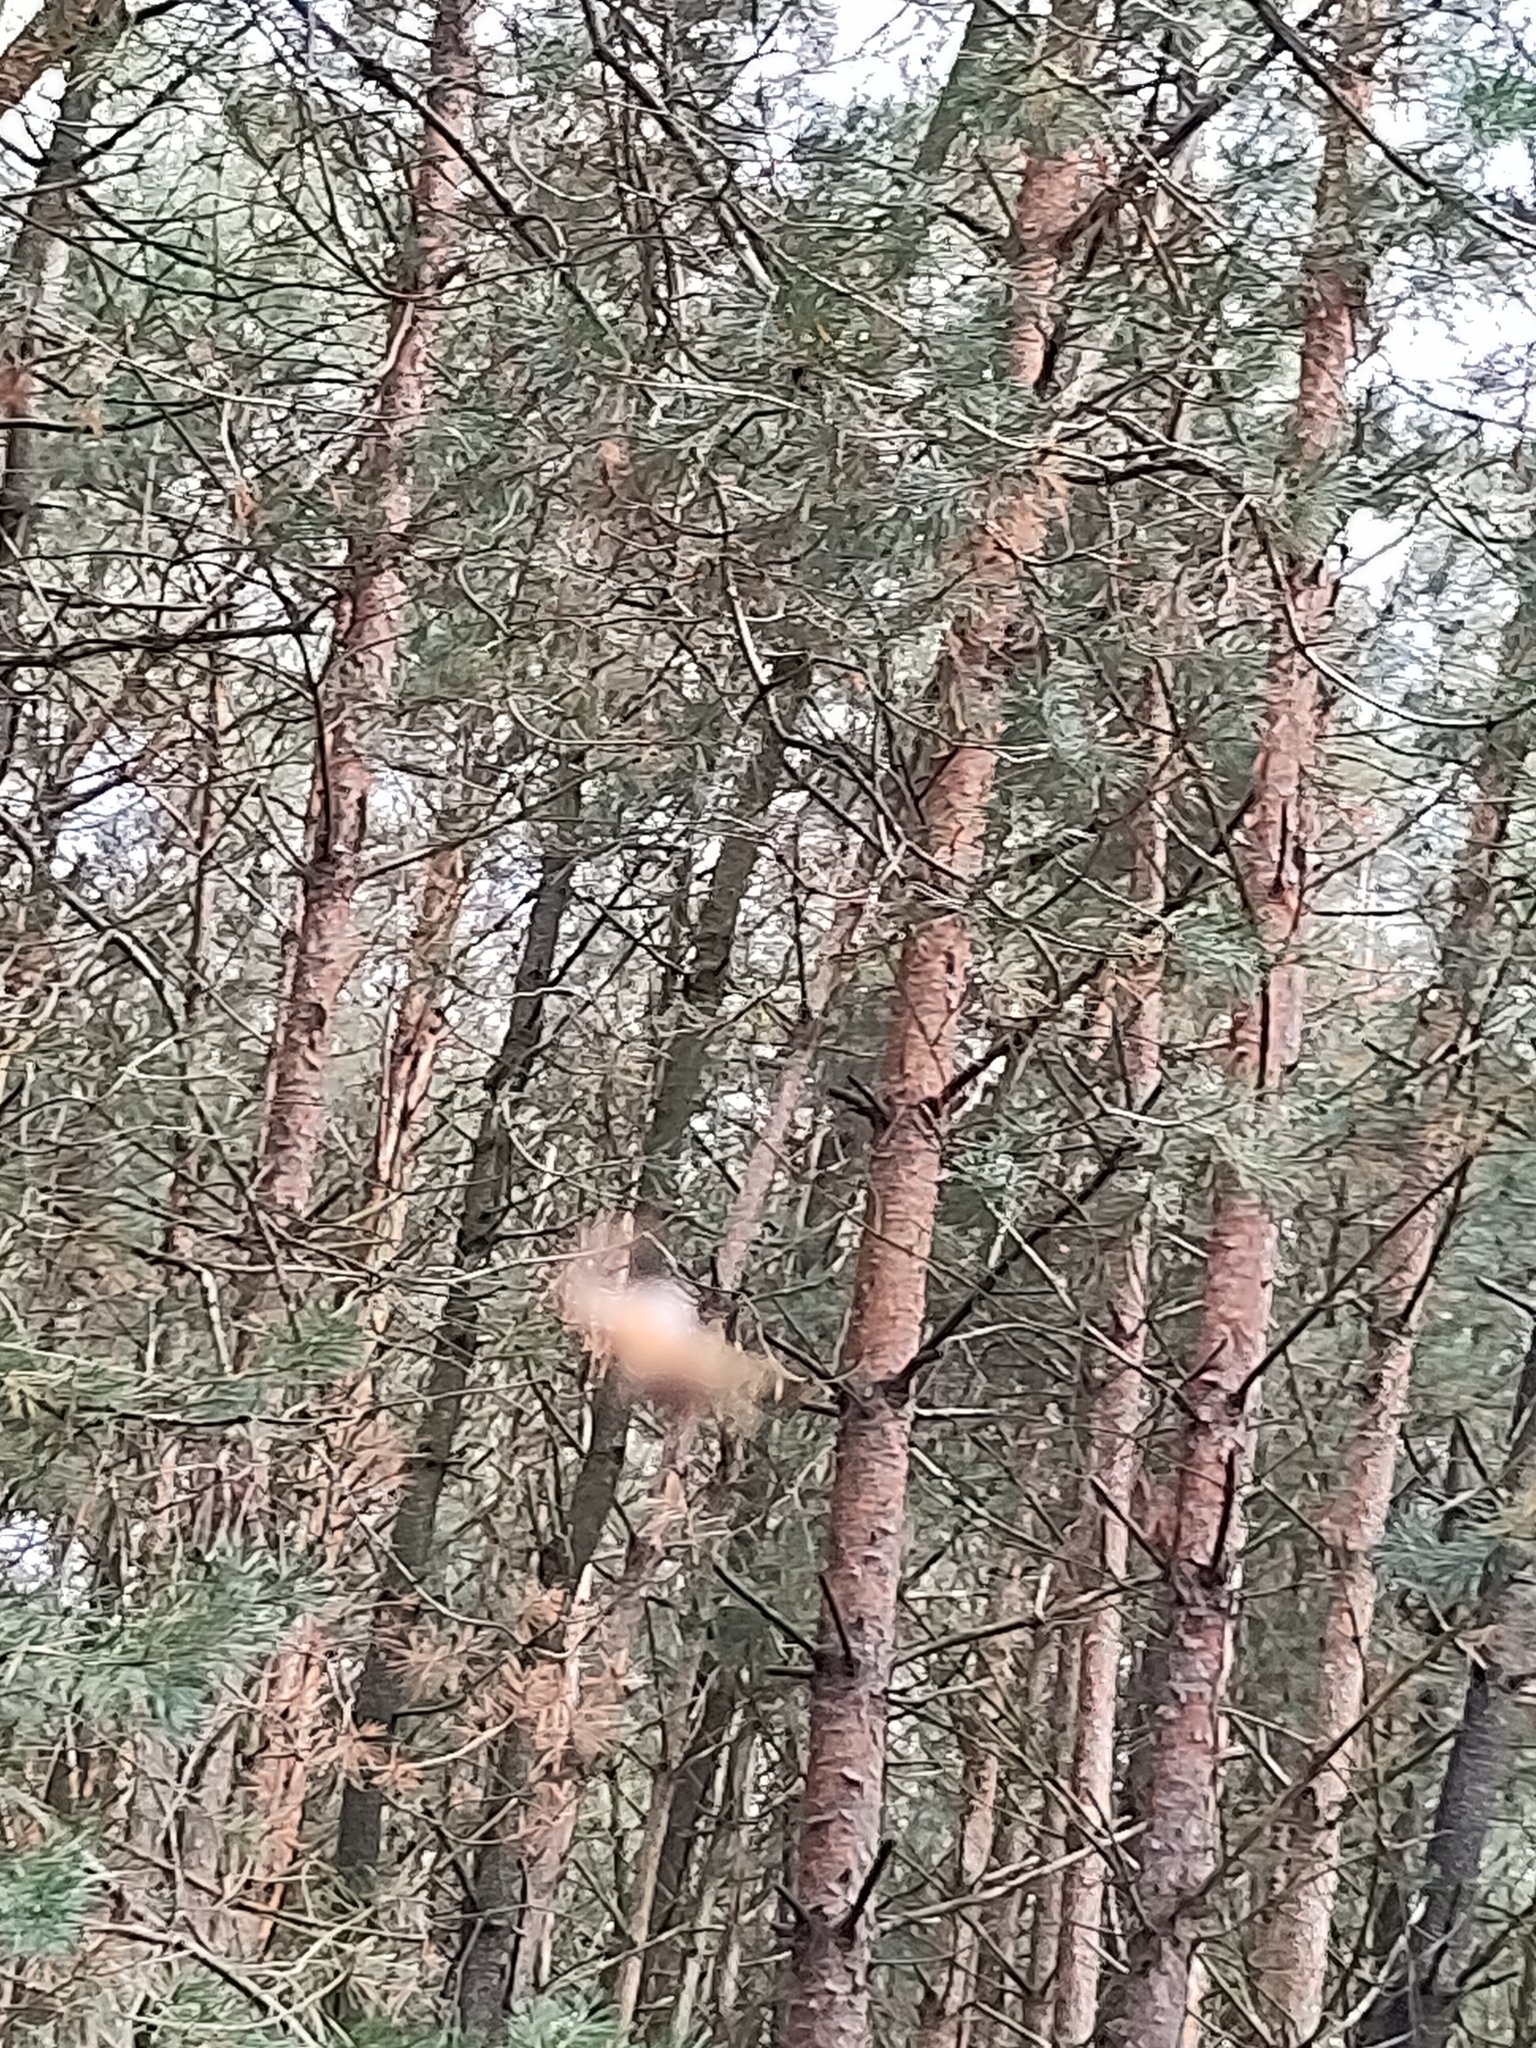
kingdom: Animalia
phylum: Arthropoda
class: Arachnida
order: Araneae
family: Araneidae
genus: Araneus
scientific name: Araneus diadematus
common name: Cross orbweaver
